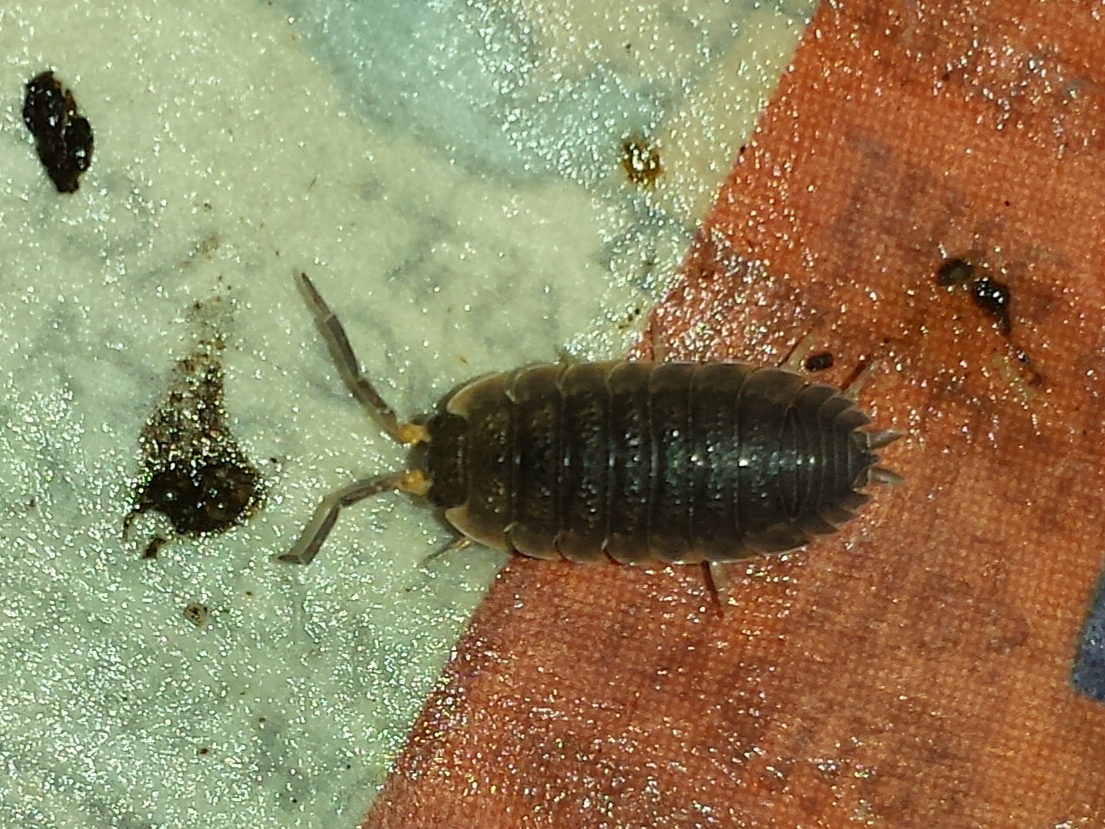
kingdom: Animalia
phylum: Arthropoda
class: Malacostraca
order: Isopoda
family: Porcellionidae
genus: Porcellio
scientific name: Porcellio scaber
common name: Common rough woodlouse
